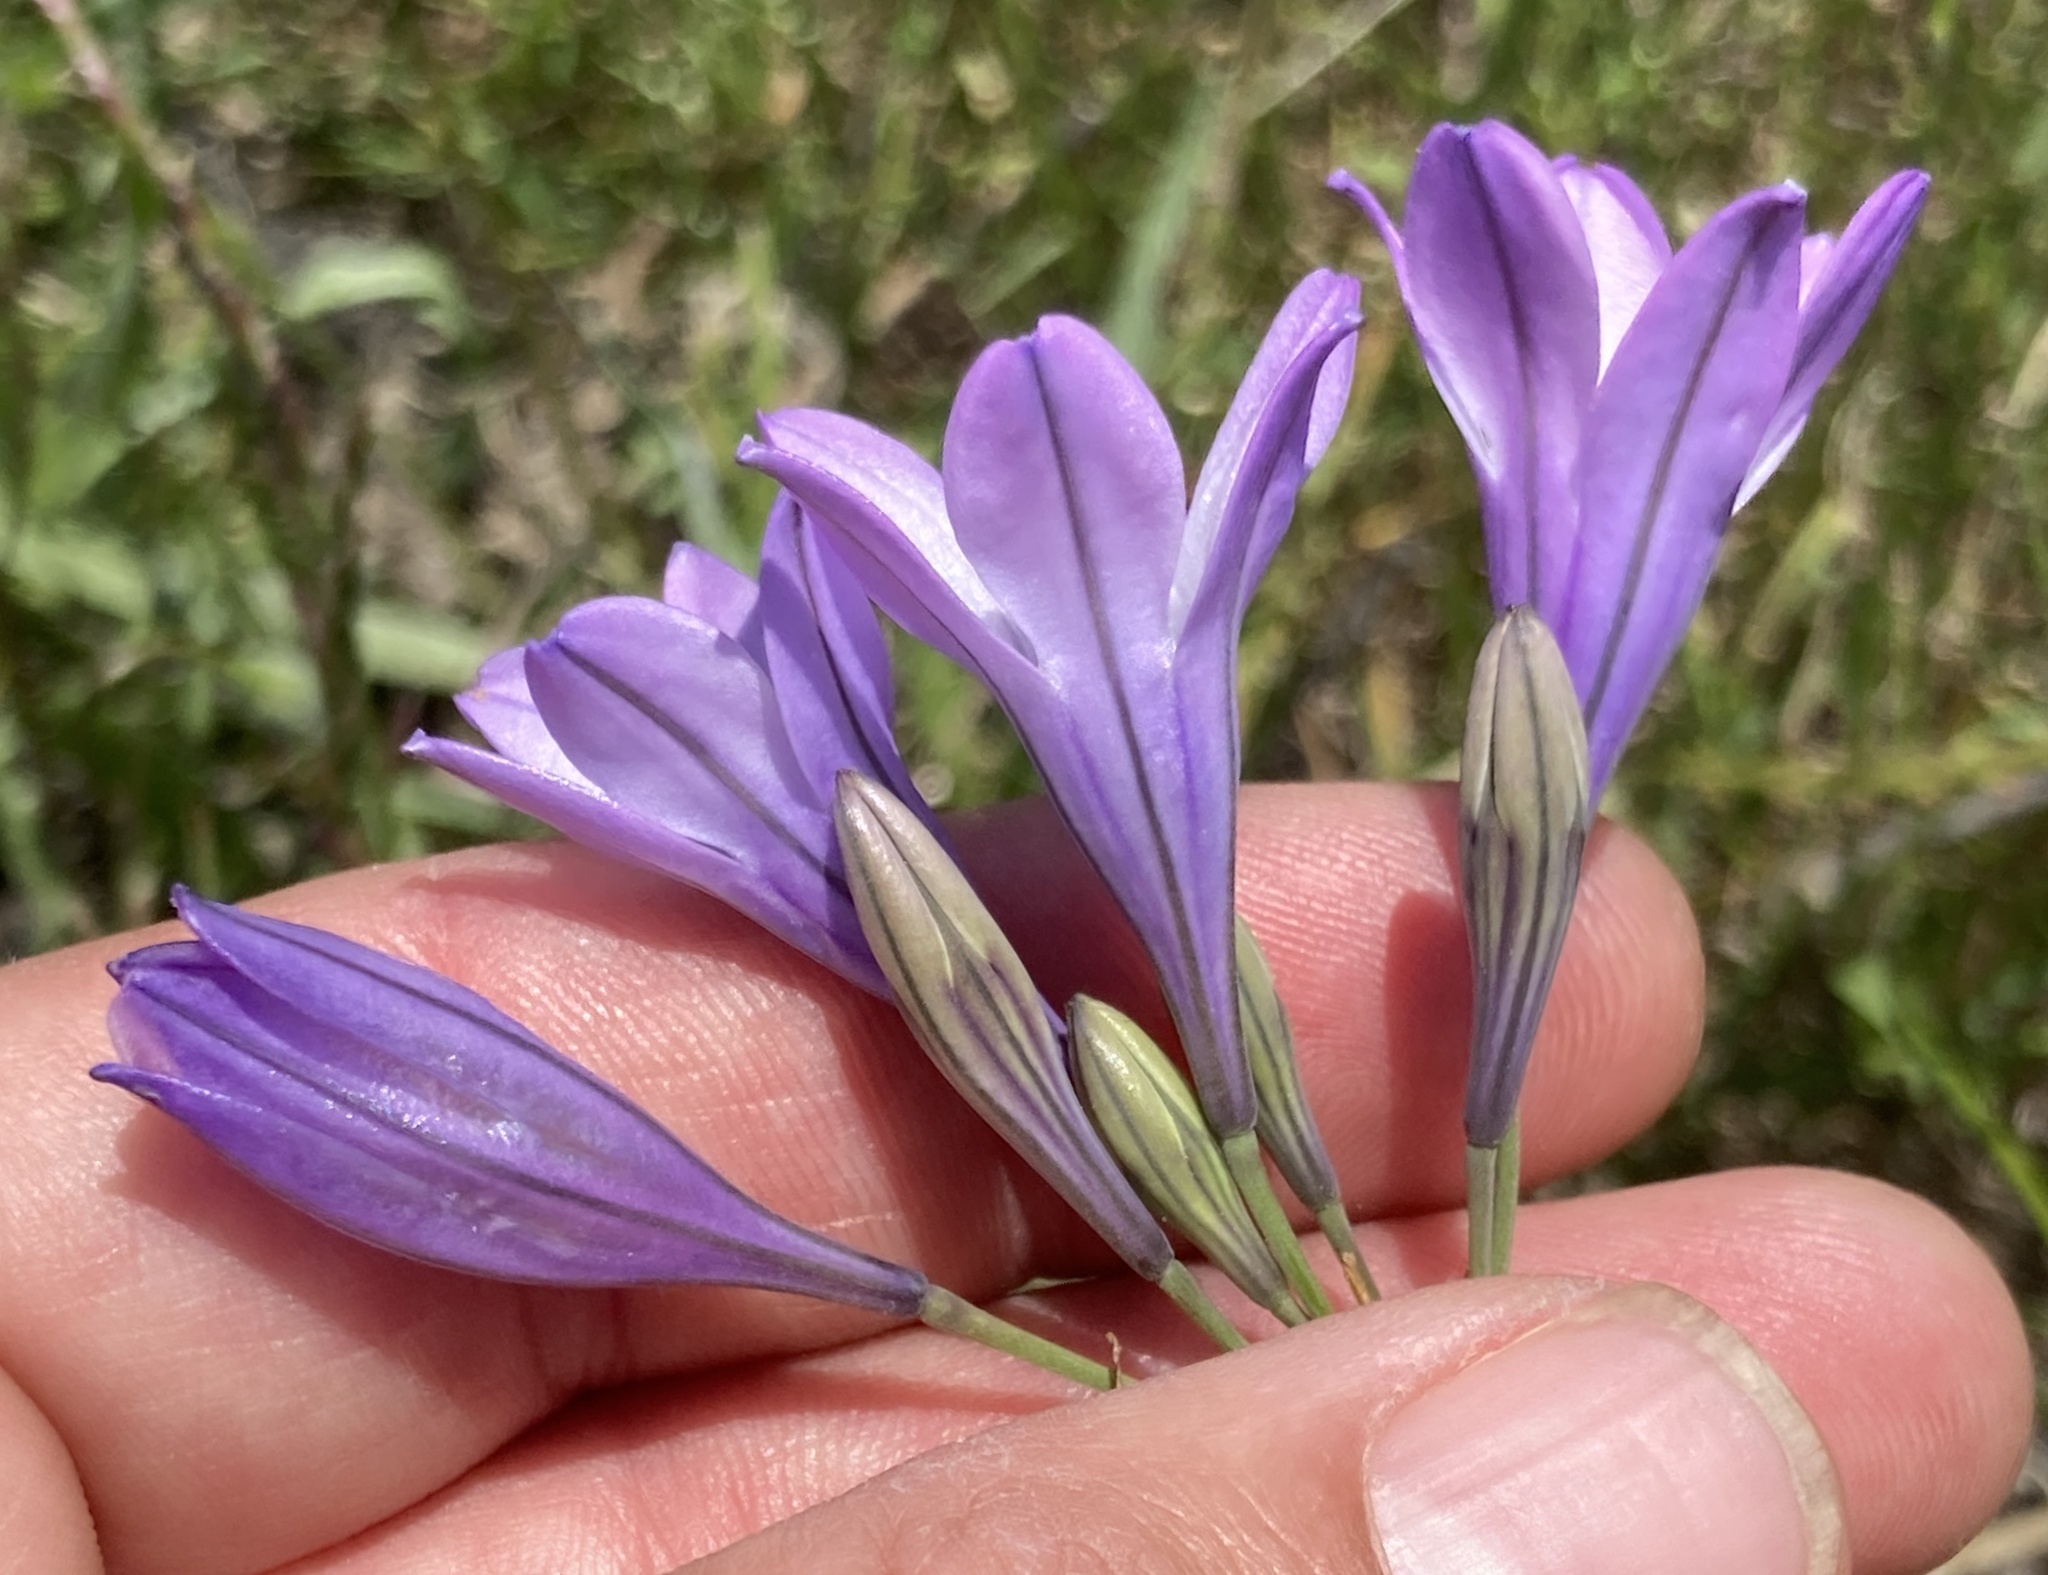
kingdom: Plantae
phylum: Tracheophyta
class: Liliopsida
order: Asparagales
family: Asparagaceae
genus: Triteleia
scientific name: Triteleia laxa
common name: Triplet-lily
